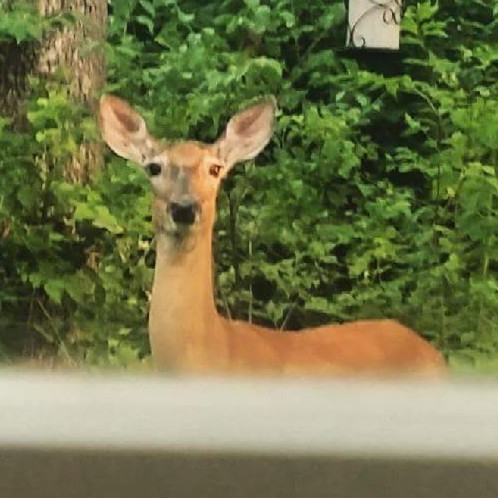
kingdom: Animalia
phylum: Chordata
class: Mammalia
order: Artiodactyla
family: Cervidae
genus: Odocoileus
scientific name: Odocoileus virginianus
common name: White-tailed deer
